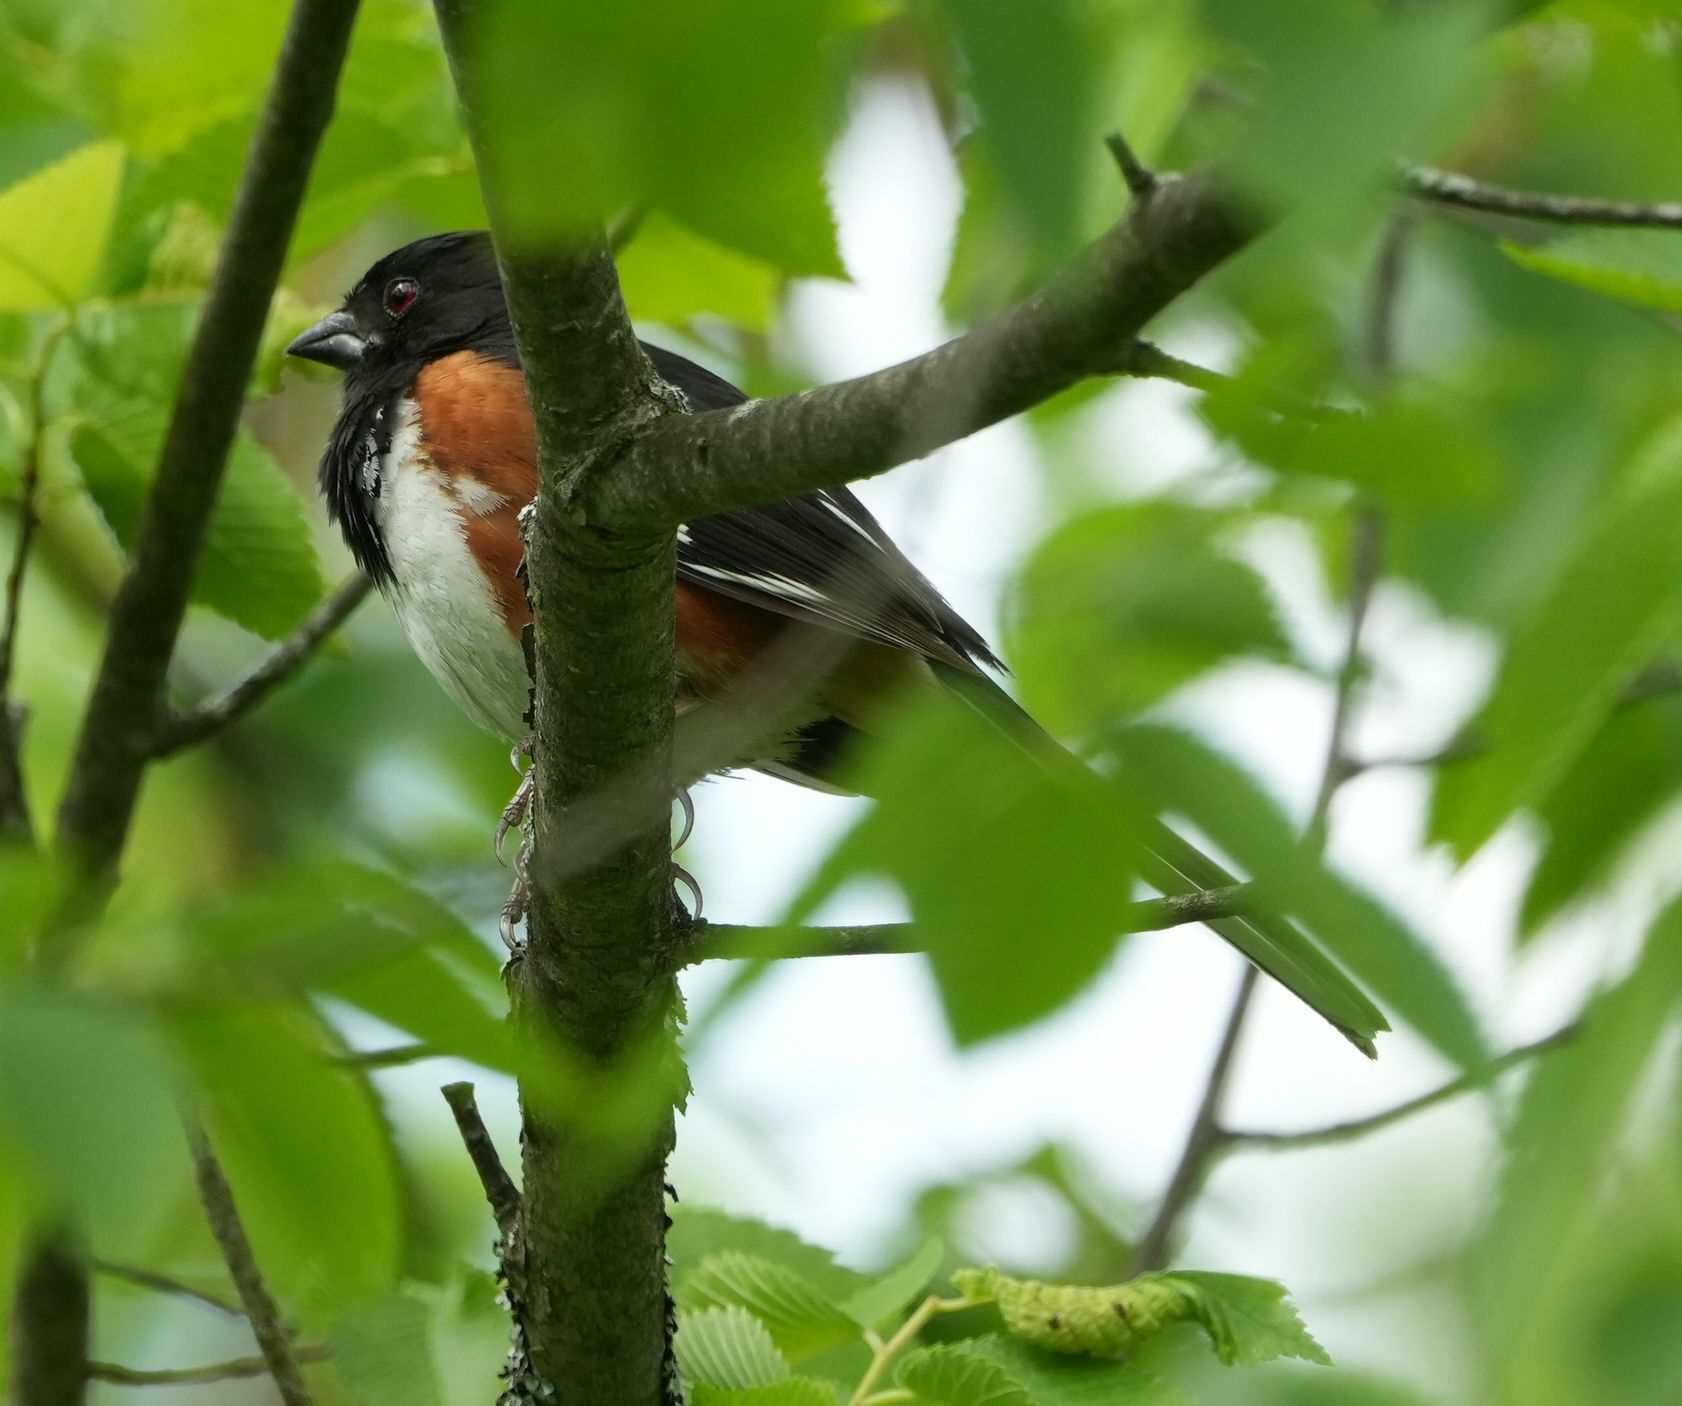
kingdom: Animalia
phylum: Chordata
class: Aves
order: Passeriformes
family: Passerellidae
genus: Pipilo
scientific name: Pipilo erythrophthalmus
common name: Eastern towhee
